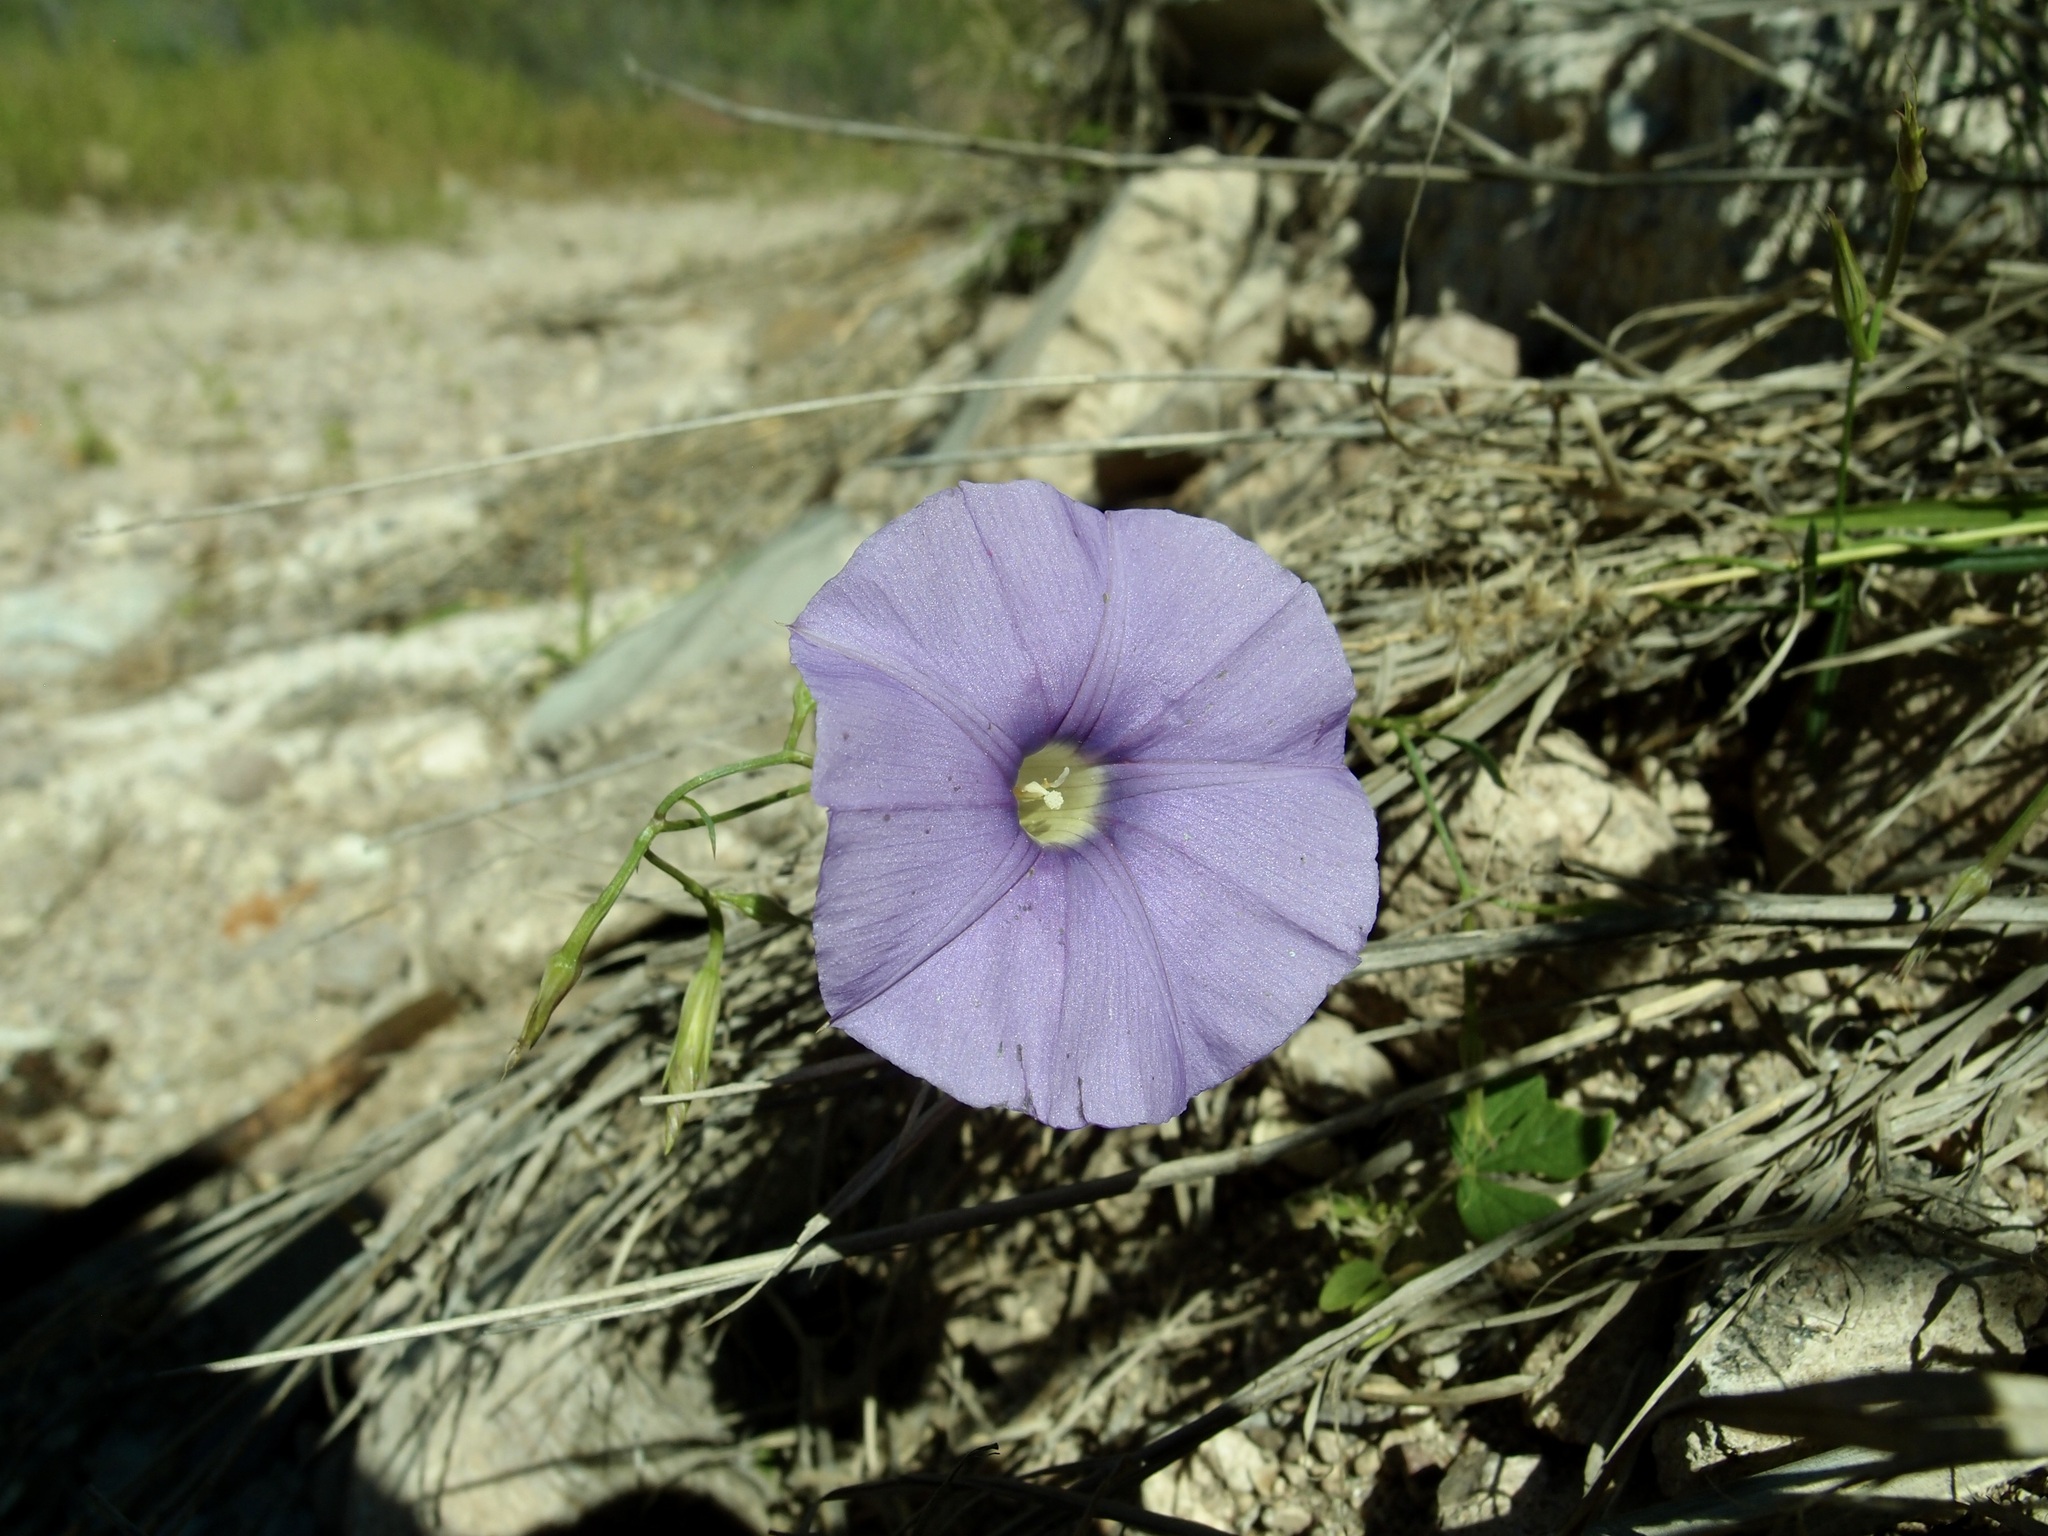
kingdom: Plantae
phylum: Tracheophyta
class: Magnoliopsida
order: Solanales
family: Convolvulaceae
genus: Ipomoea
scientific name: Ipomoea ternifolia
